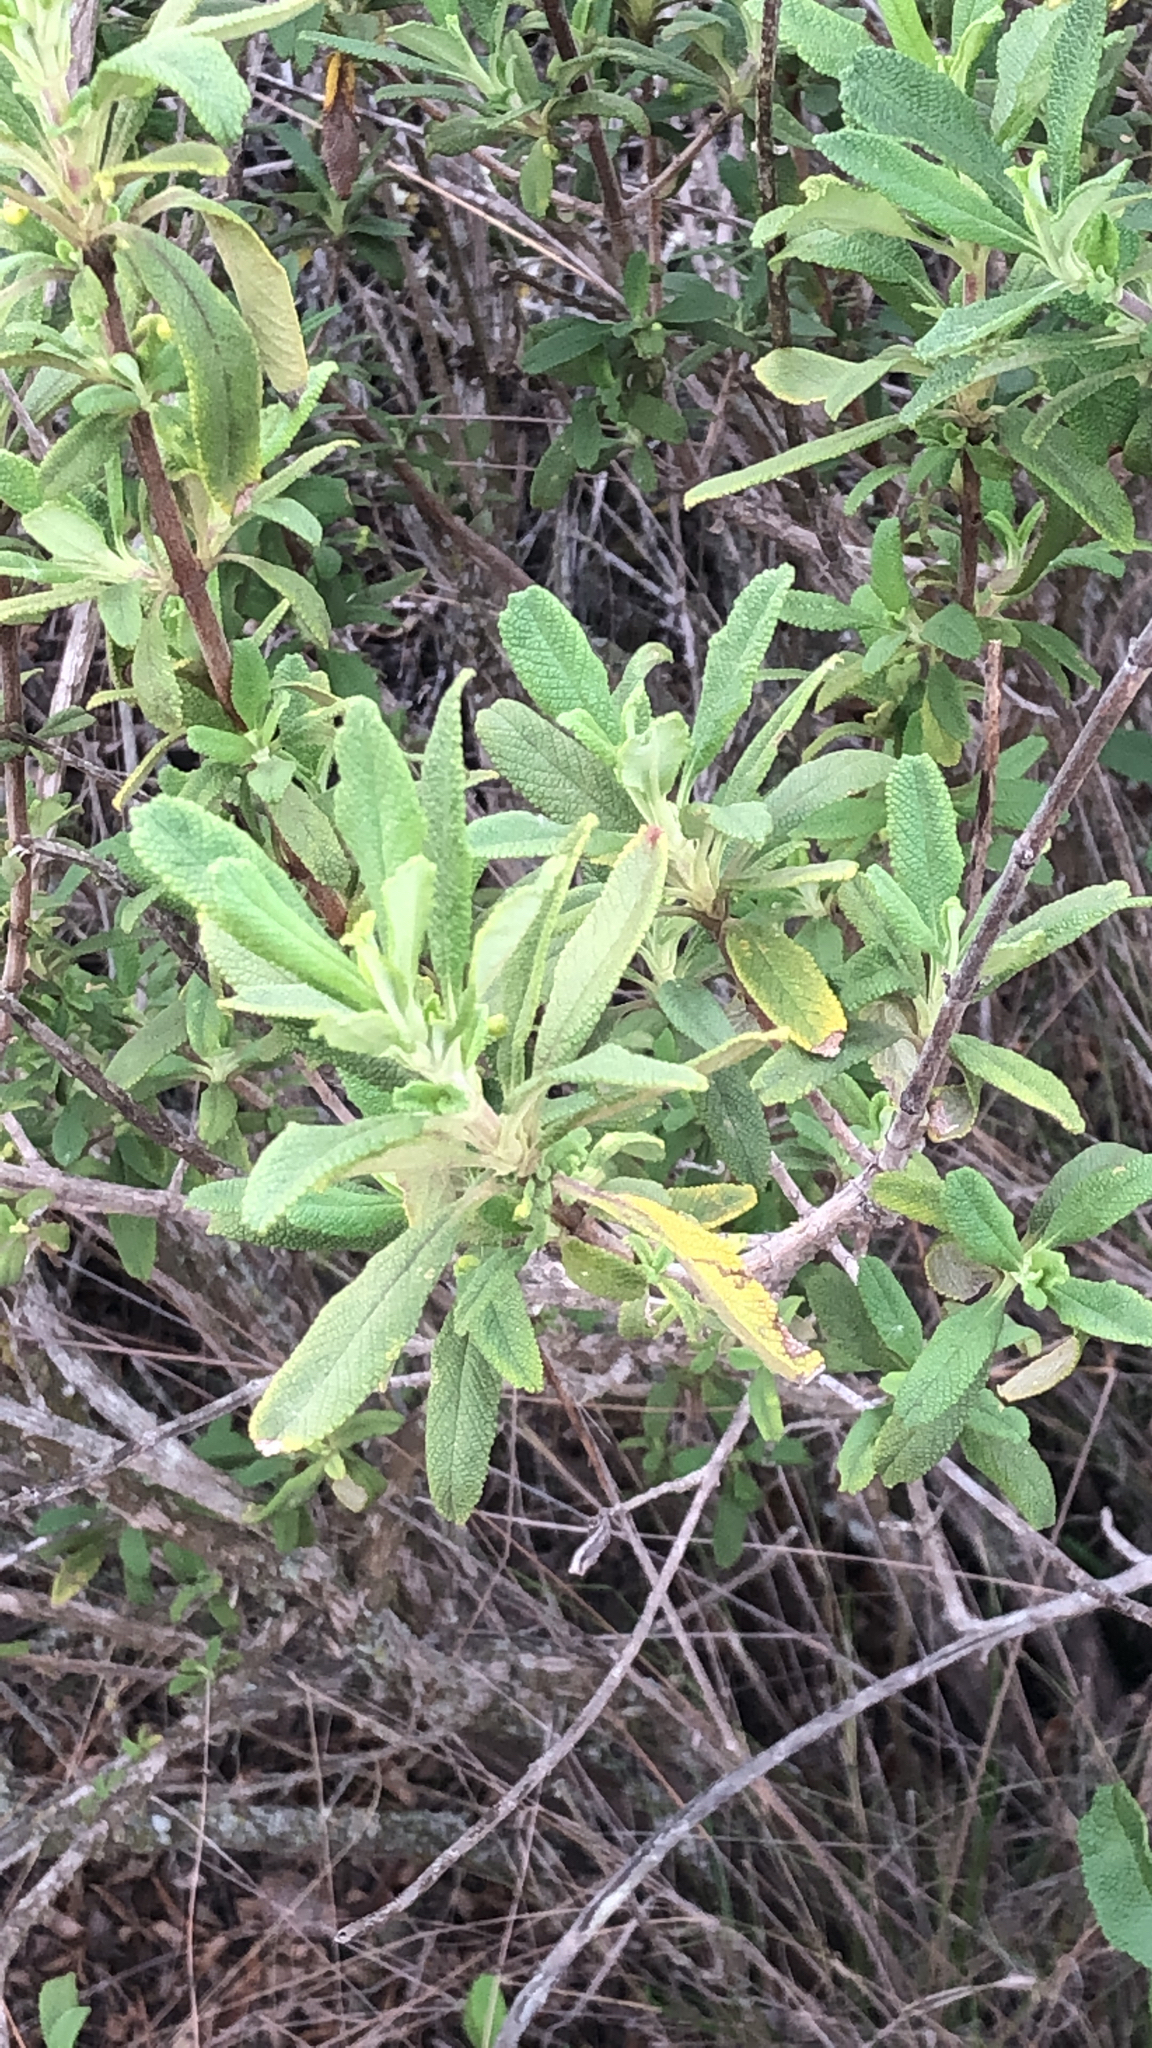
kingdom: Plantae
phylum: Tracheophyta
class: Magnoliopsida
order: Lamiales
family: Lamiaceae
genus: Salvia
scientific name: Salvia mellifera
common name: Black sage
